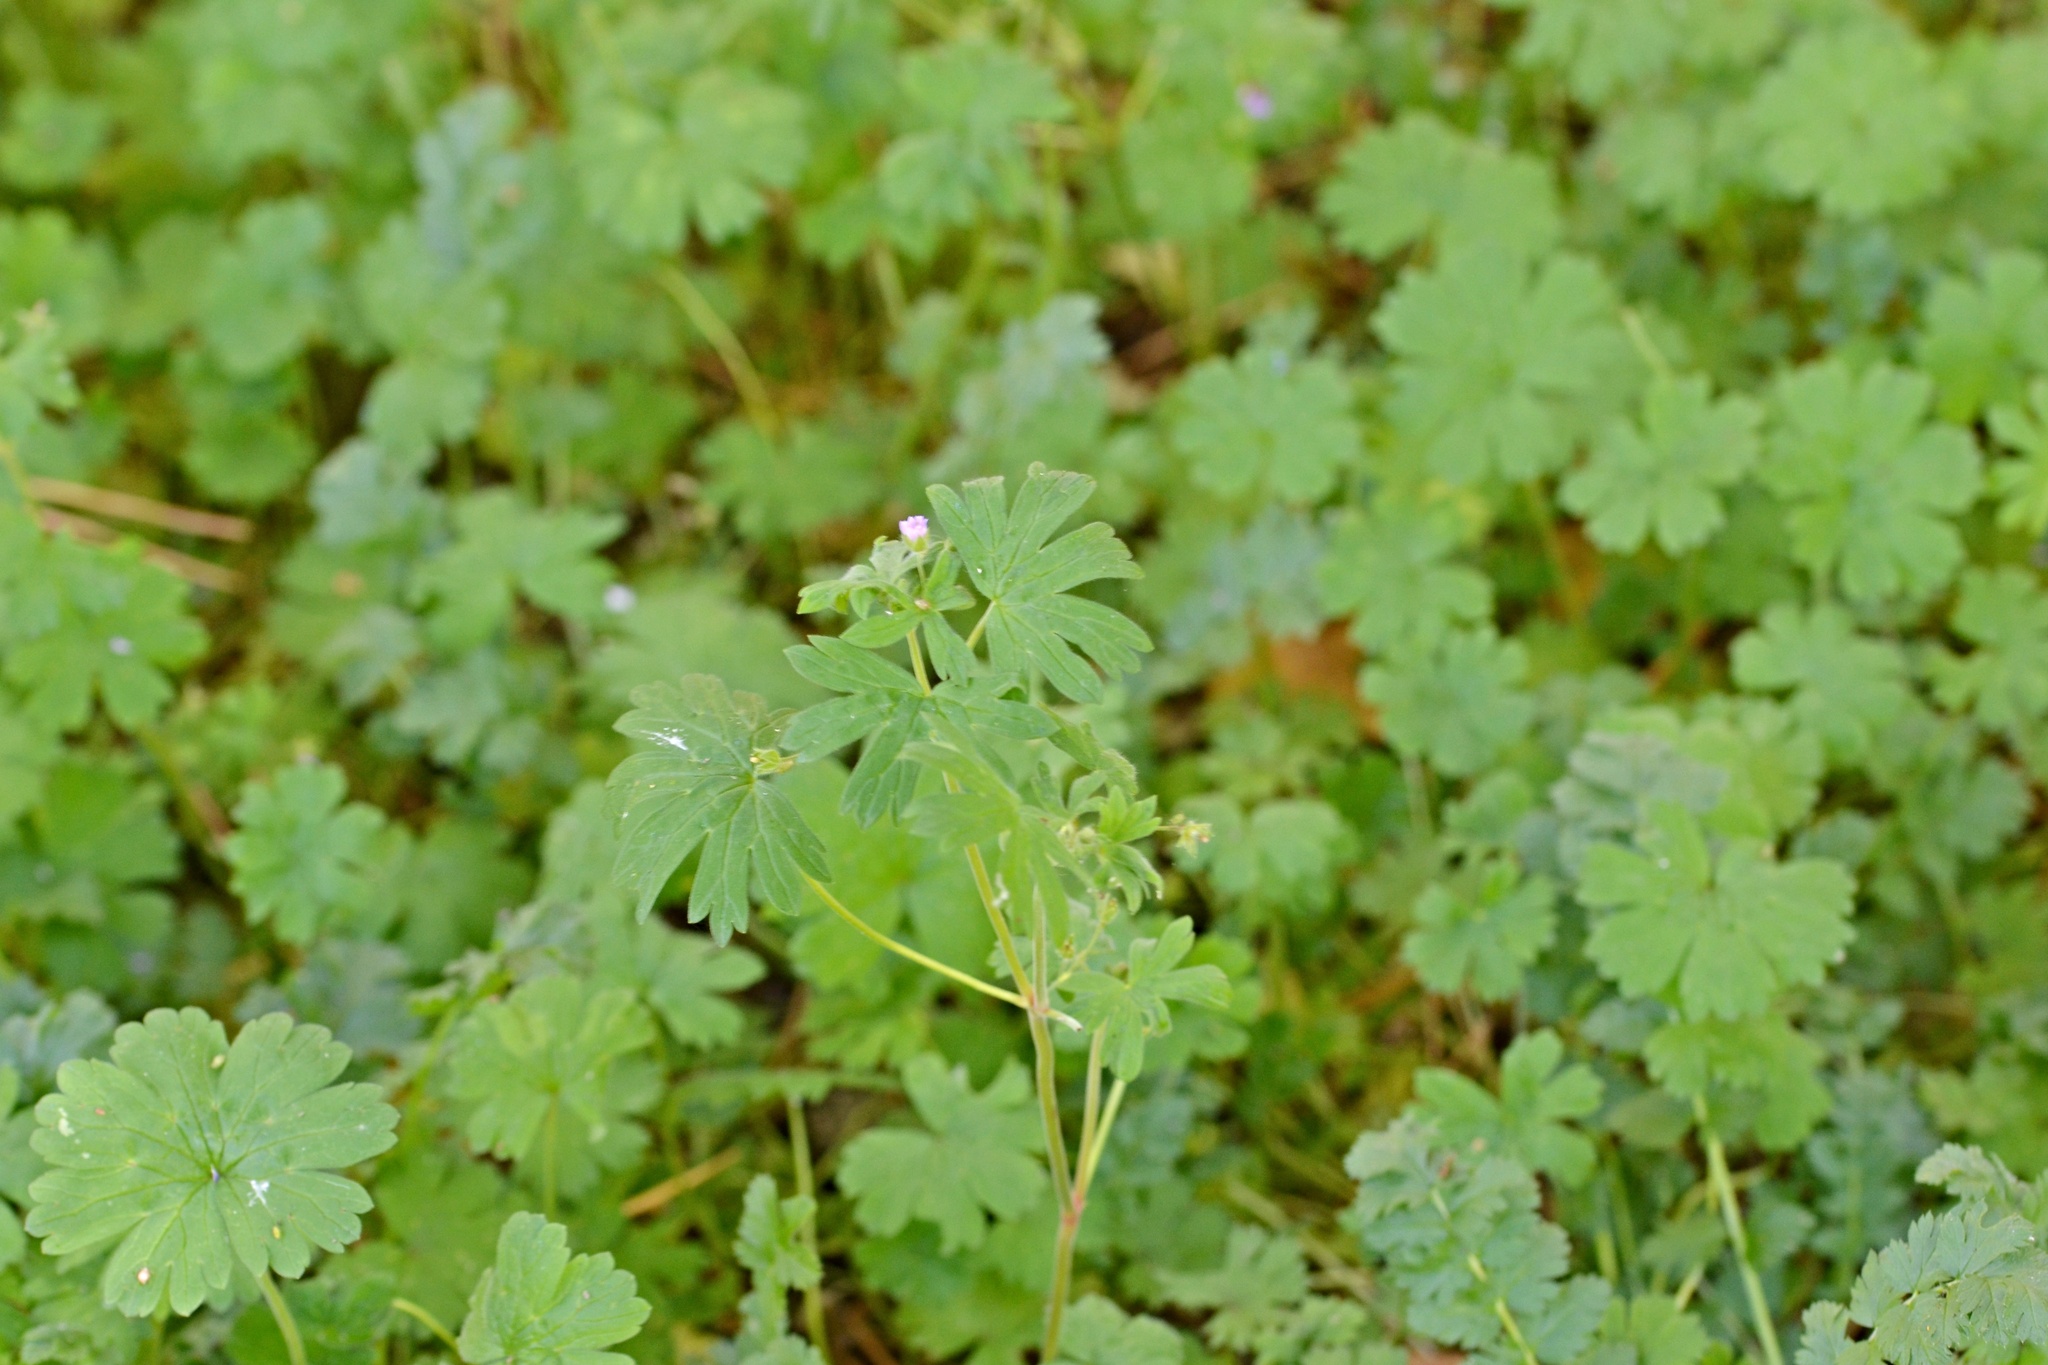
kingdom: Plantae
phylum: Tracheophyta
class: Magnoliopsida
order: Geraniales
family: Geraniaceae
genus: Geranium
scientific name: Geranium pusillum
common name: Small geranium
